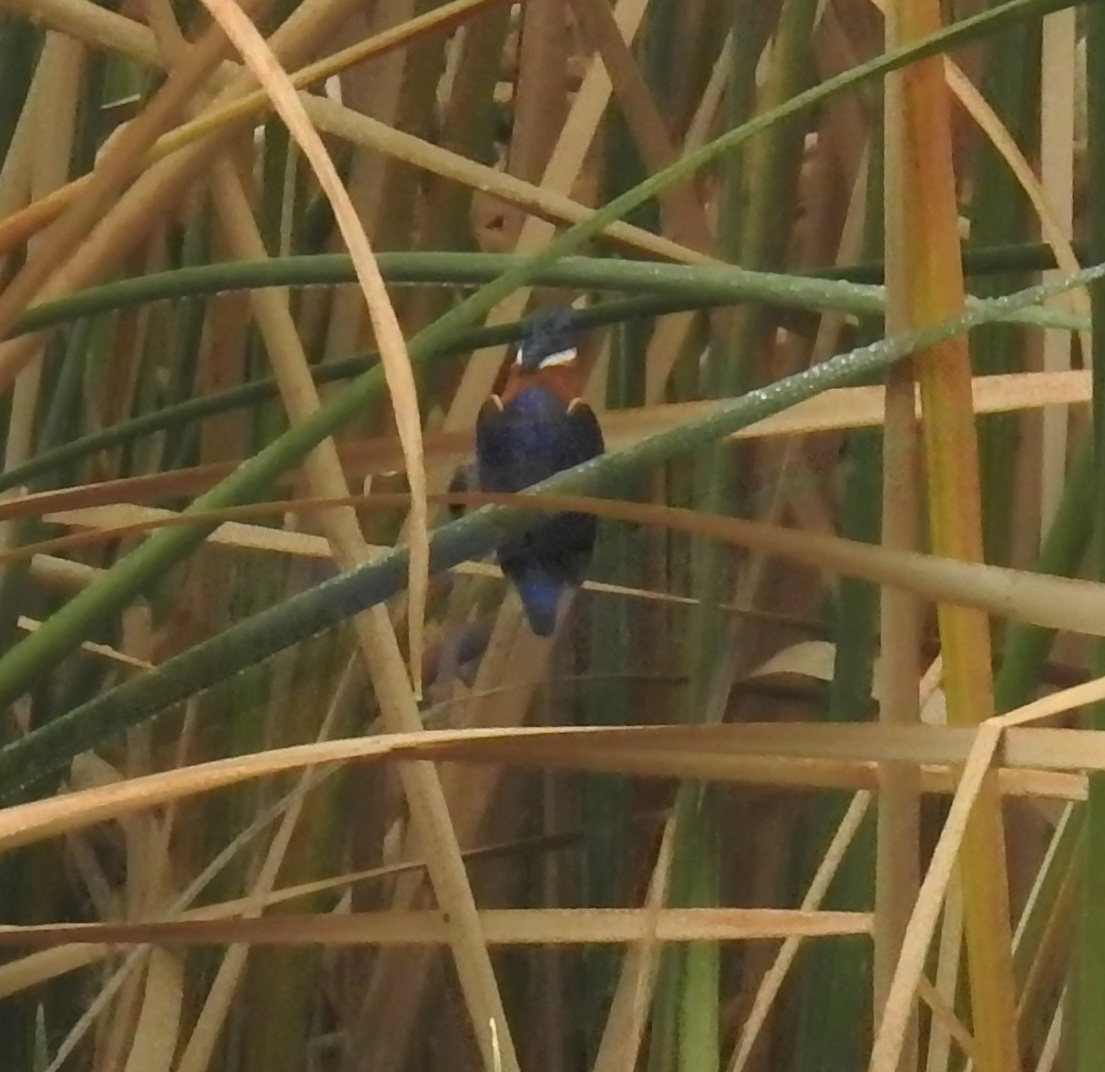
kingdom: Animalia
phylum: Chordata
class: Aves
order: Coraciiformes
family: Alcedinidae
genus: Corythornis
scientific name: Corythornis cristatus
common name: Malachite kingfisher
